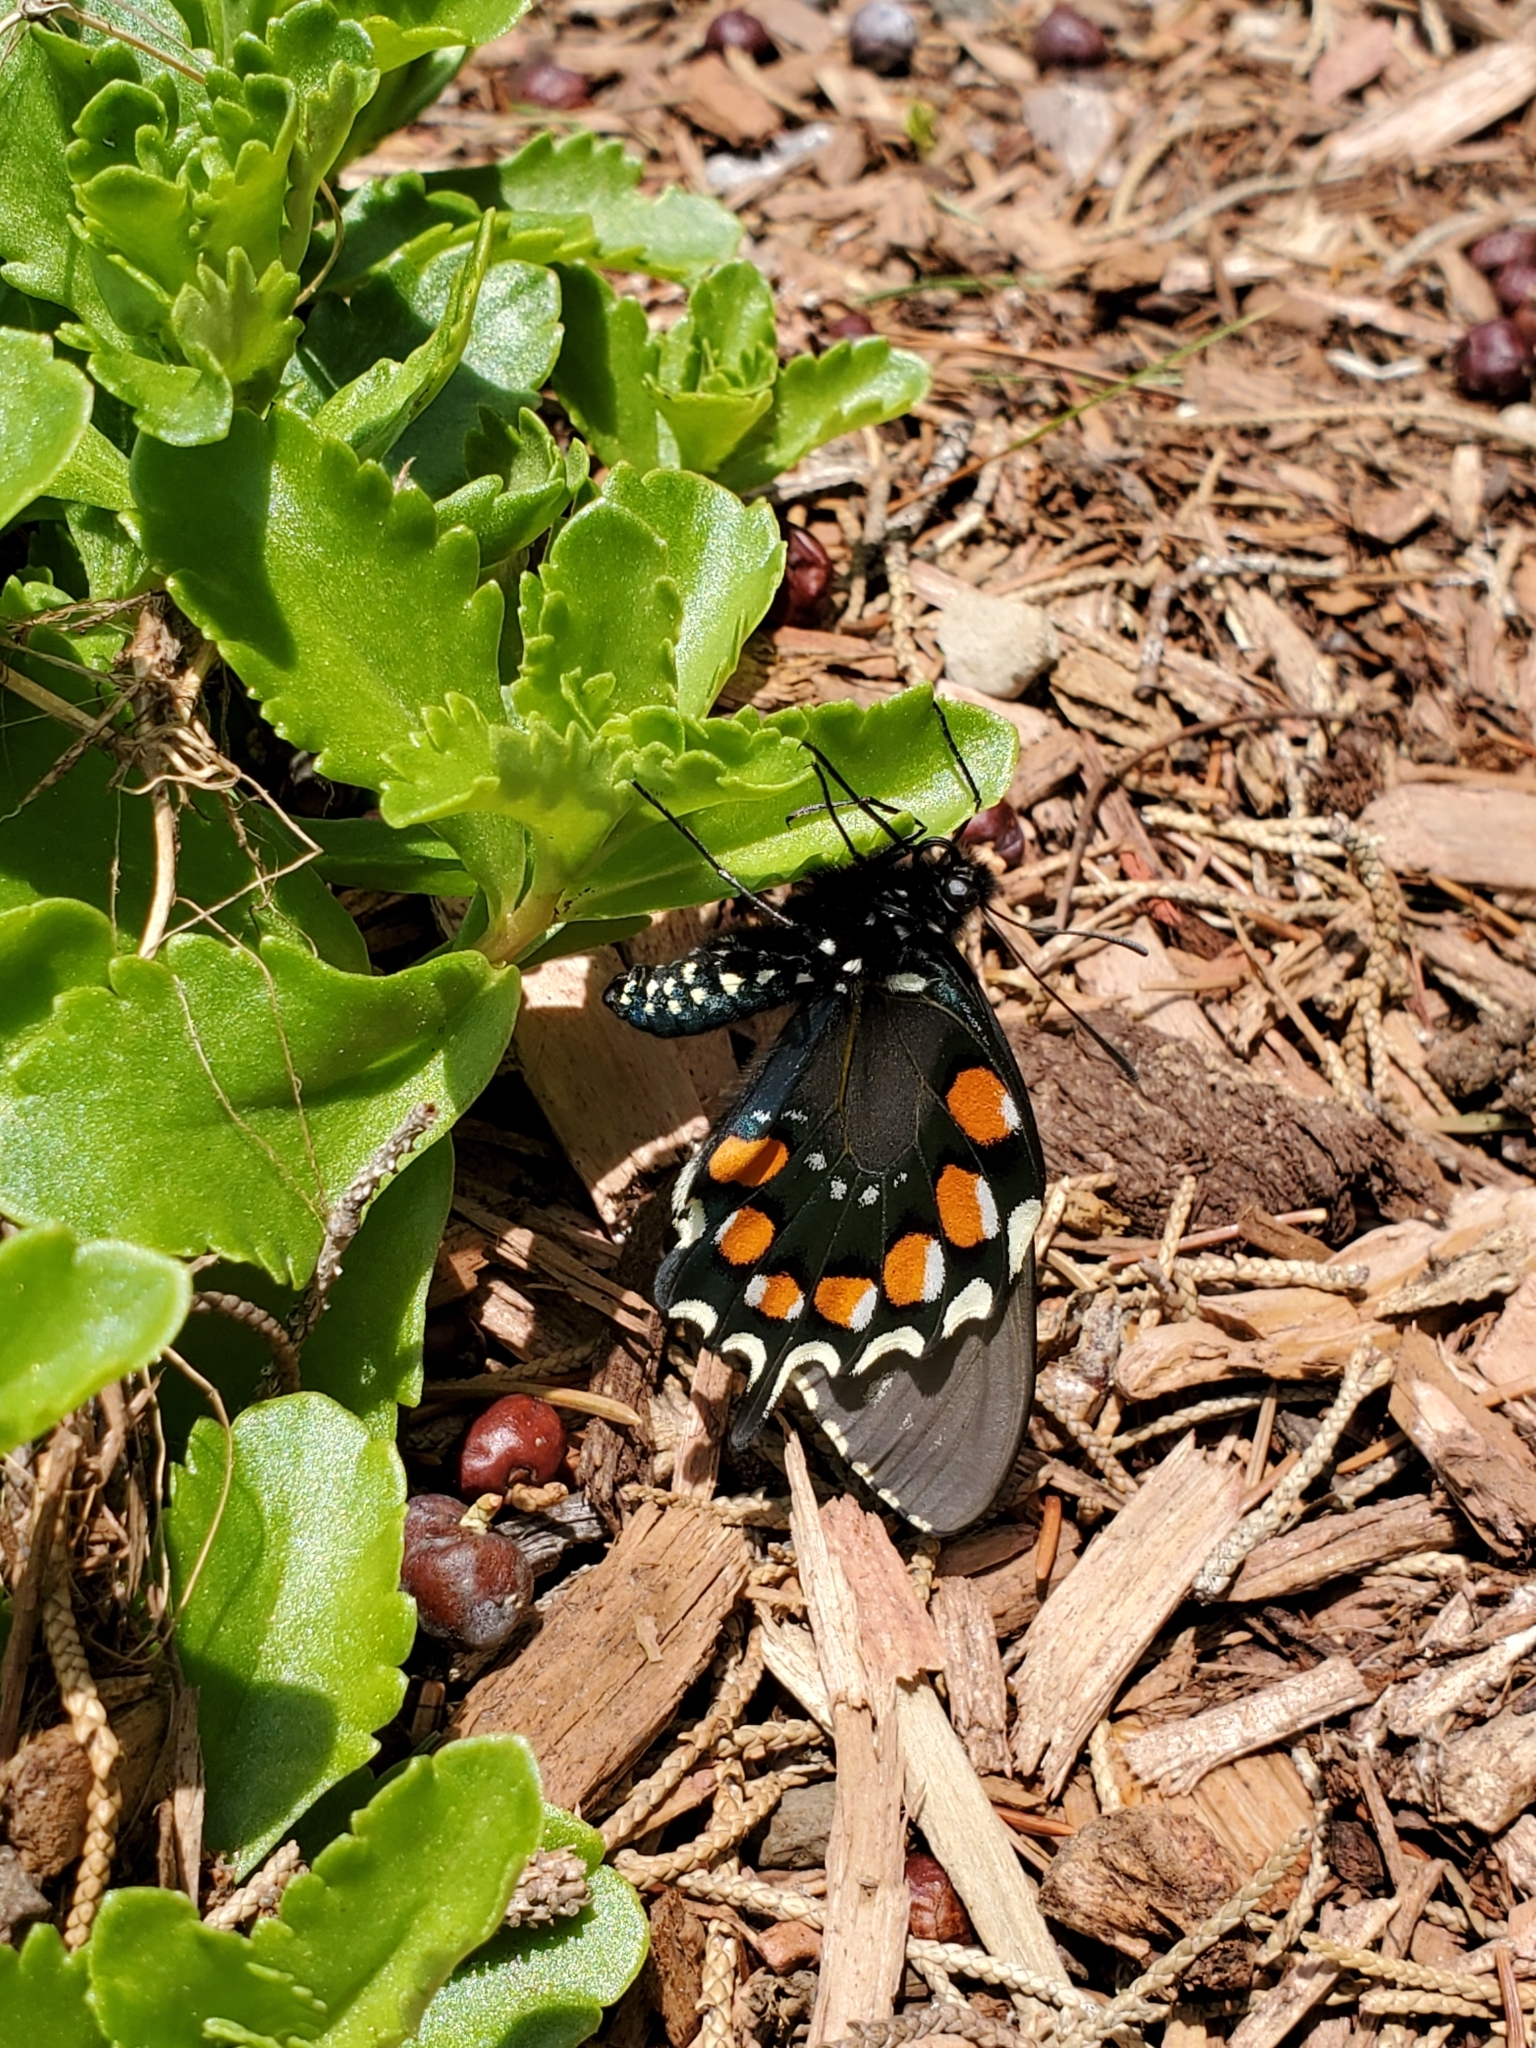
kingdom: Animalia
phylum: Arthropoda
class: Insecta
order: Lepidoptera
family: Papilionidae
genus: Battus
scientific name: Battus philenor
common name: Pipevine swallowtail
